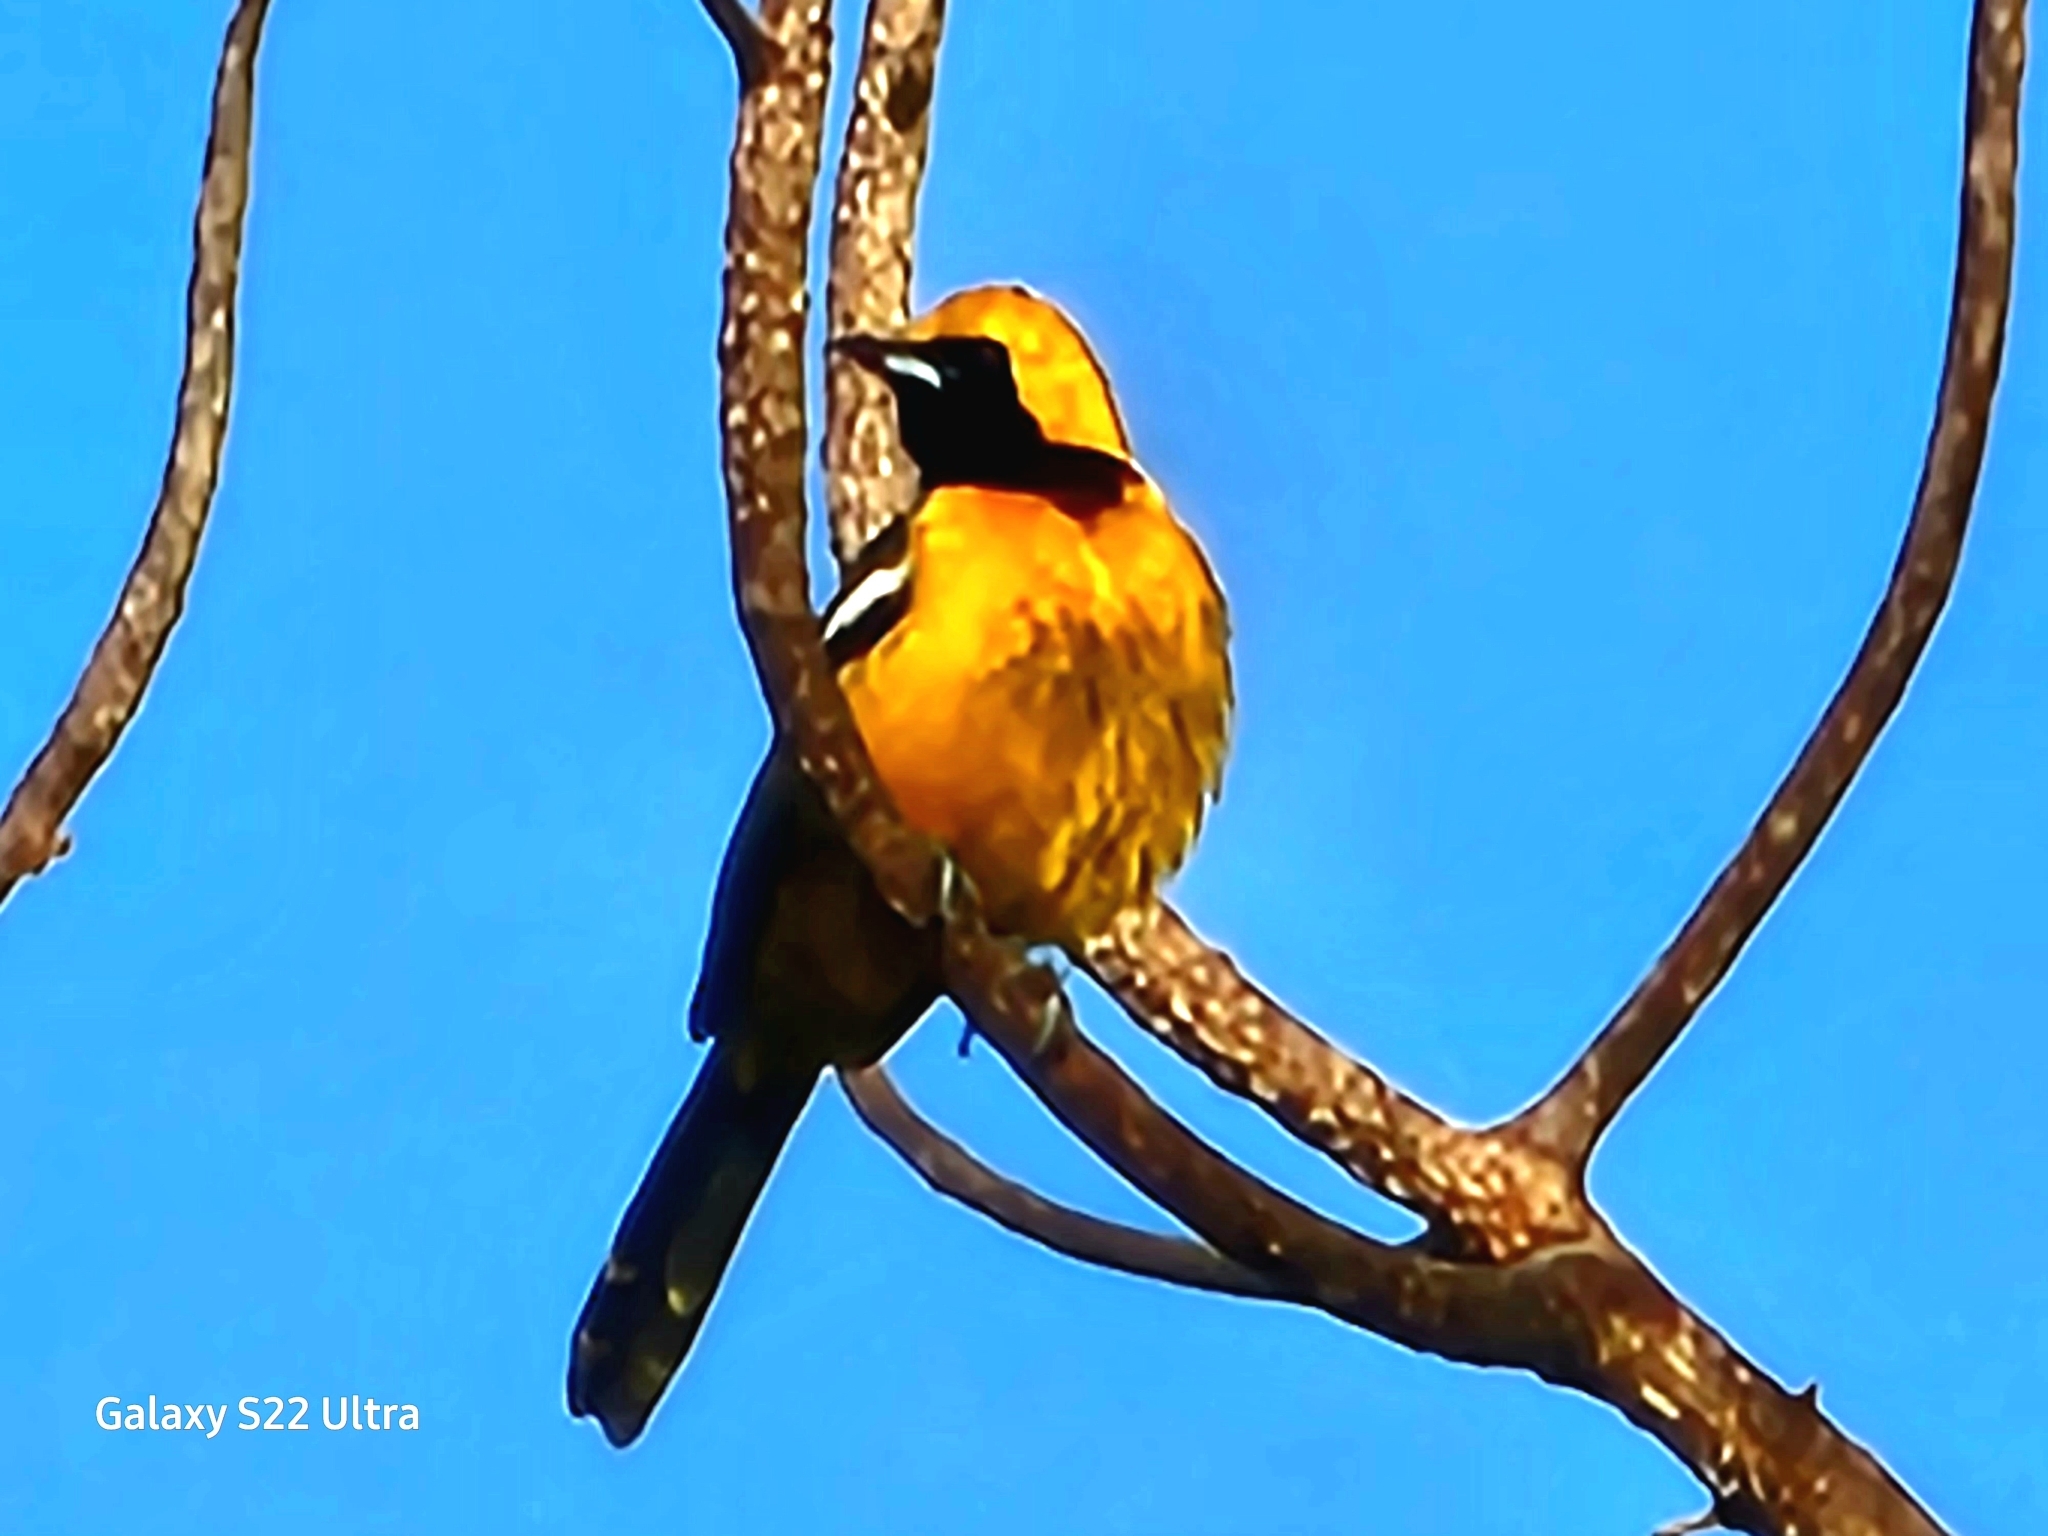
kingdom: Animalia
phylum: Chordata
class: Aves
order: Passeriformes
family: Icteridae
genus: Icterus
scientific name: Icterus cucullatus
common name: Hooded oriole
